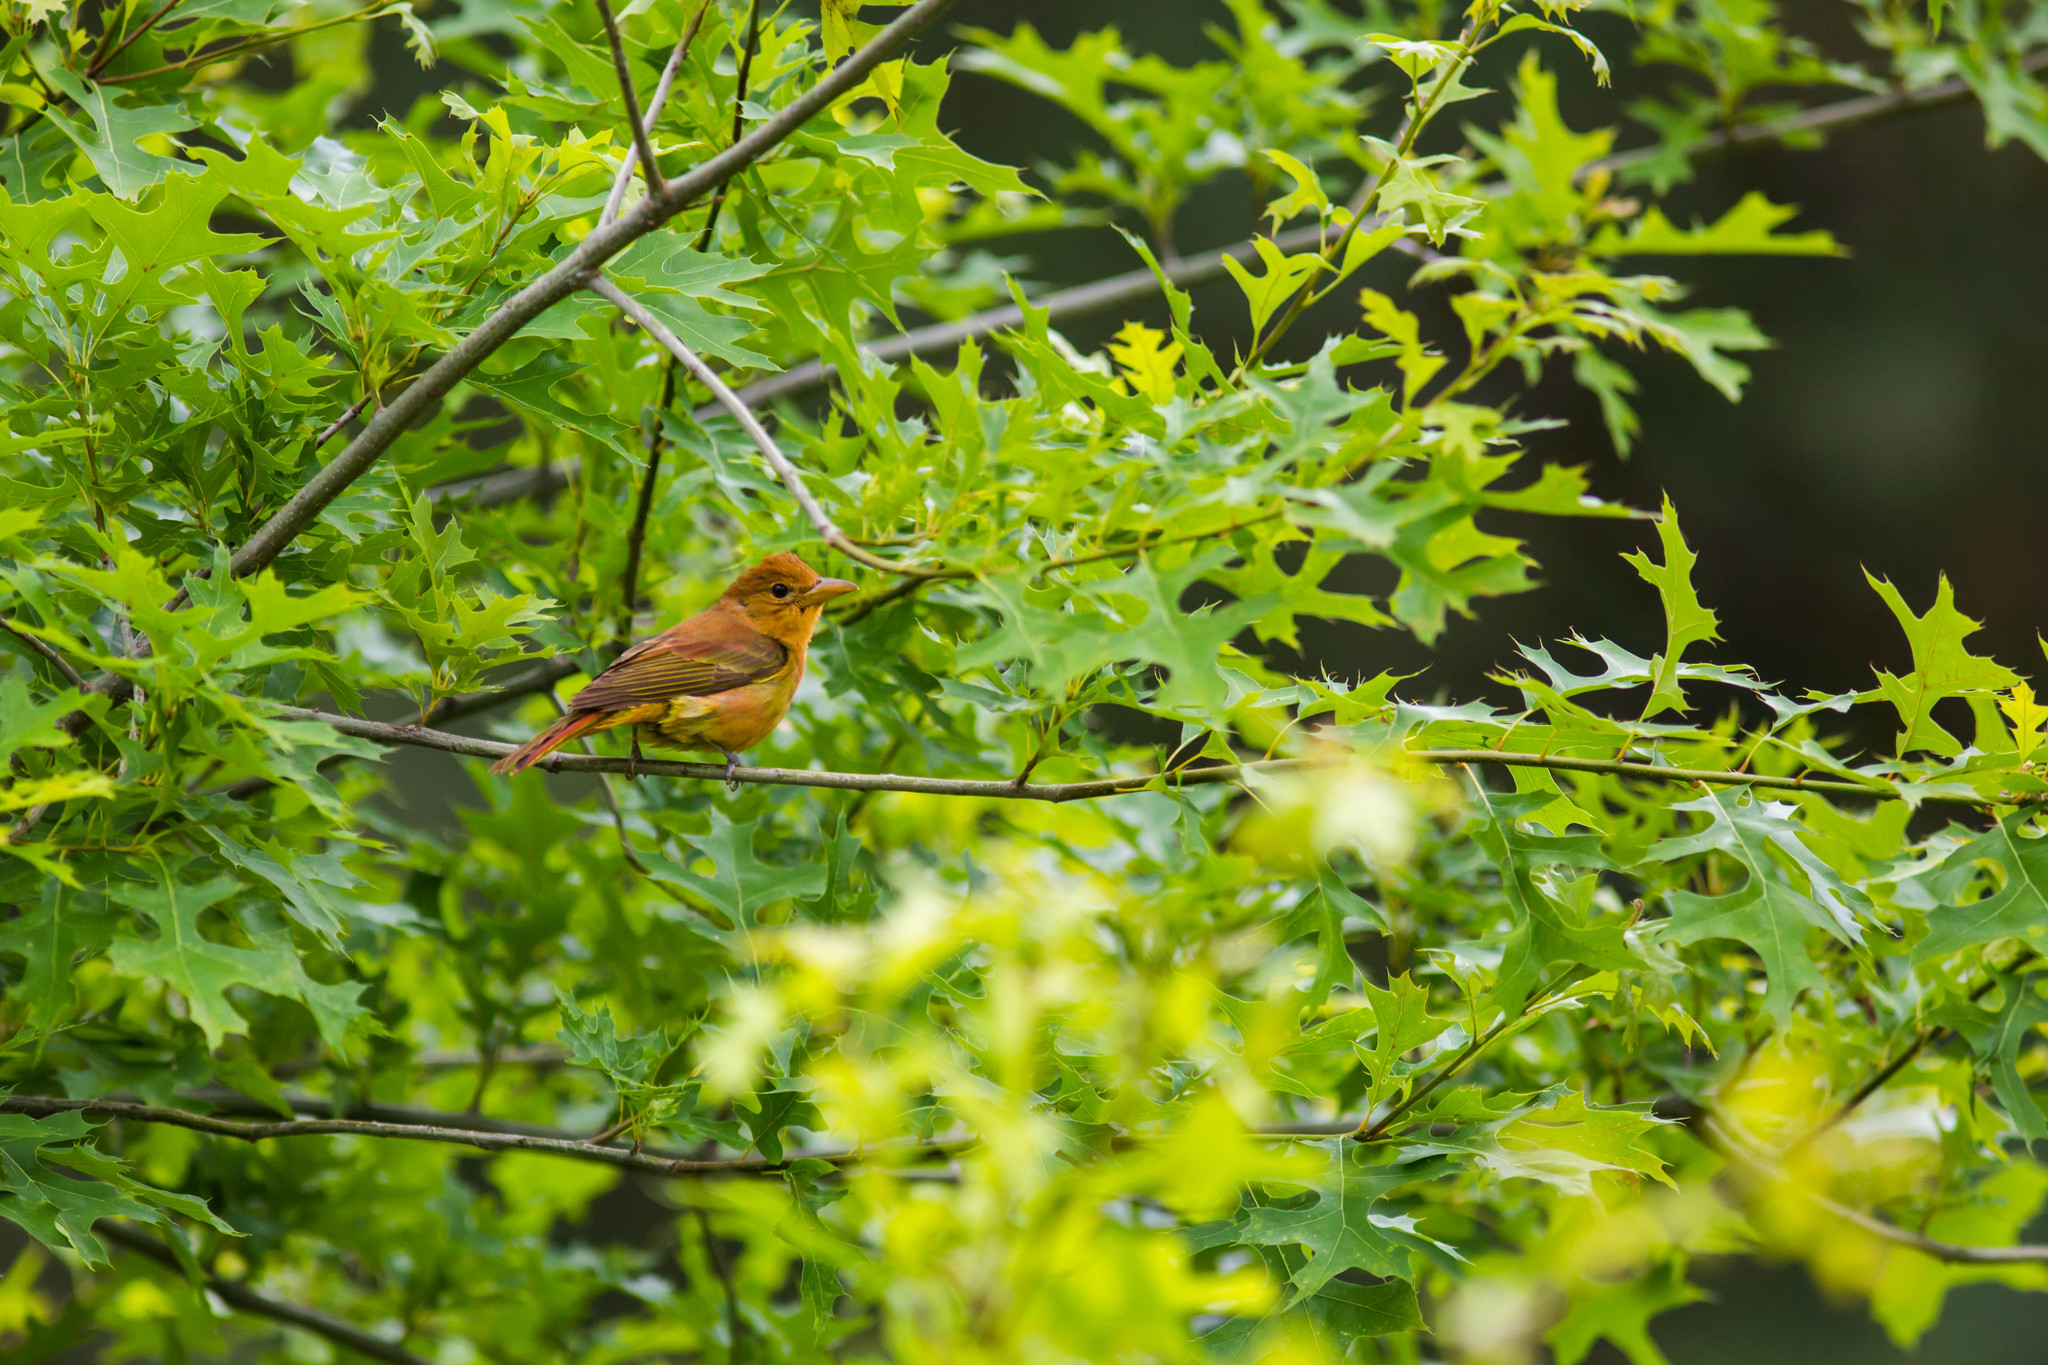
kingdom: Animalia
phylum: Chordata
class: Aves
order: Passeriformes
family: Cardinalidae
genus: Piranga
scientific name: Piranga rubra
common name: Summer tanager
